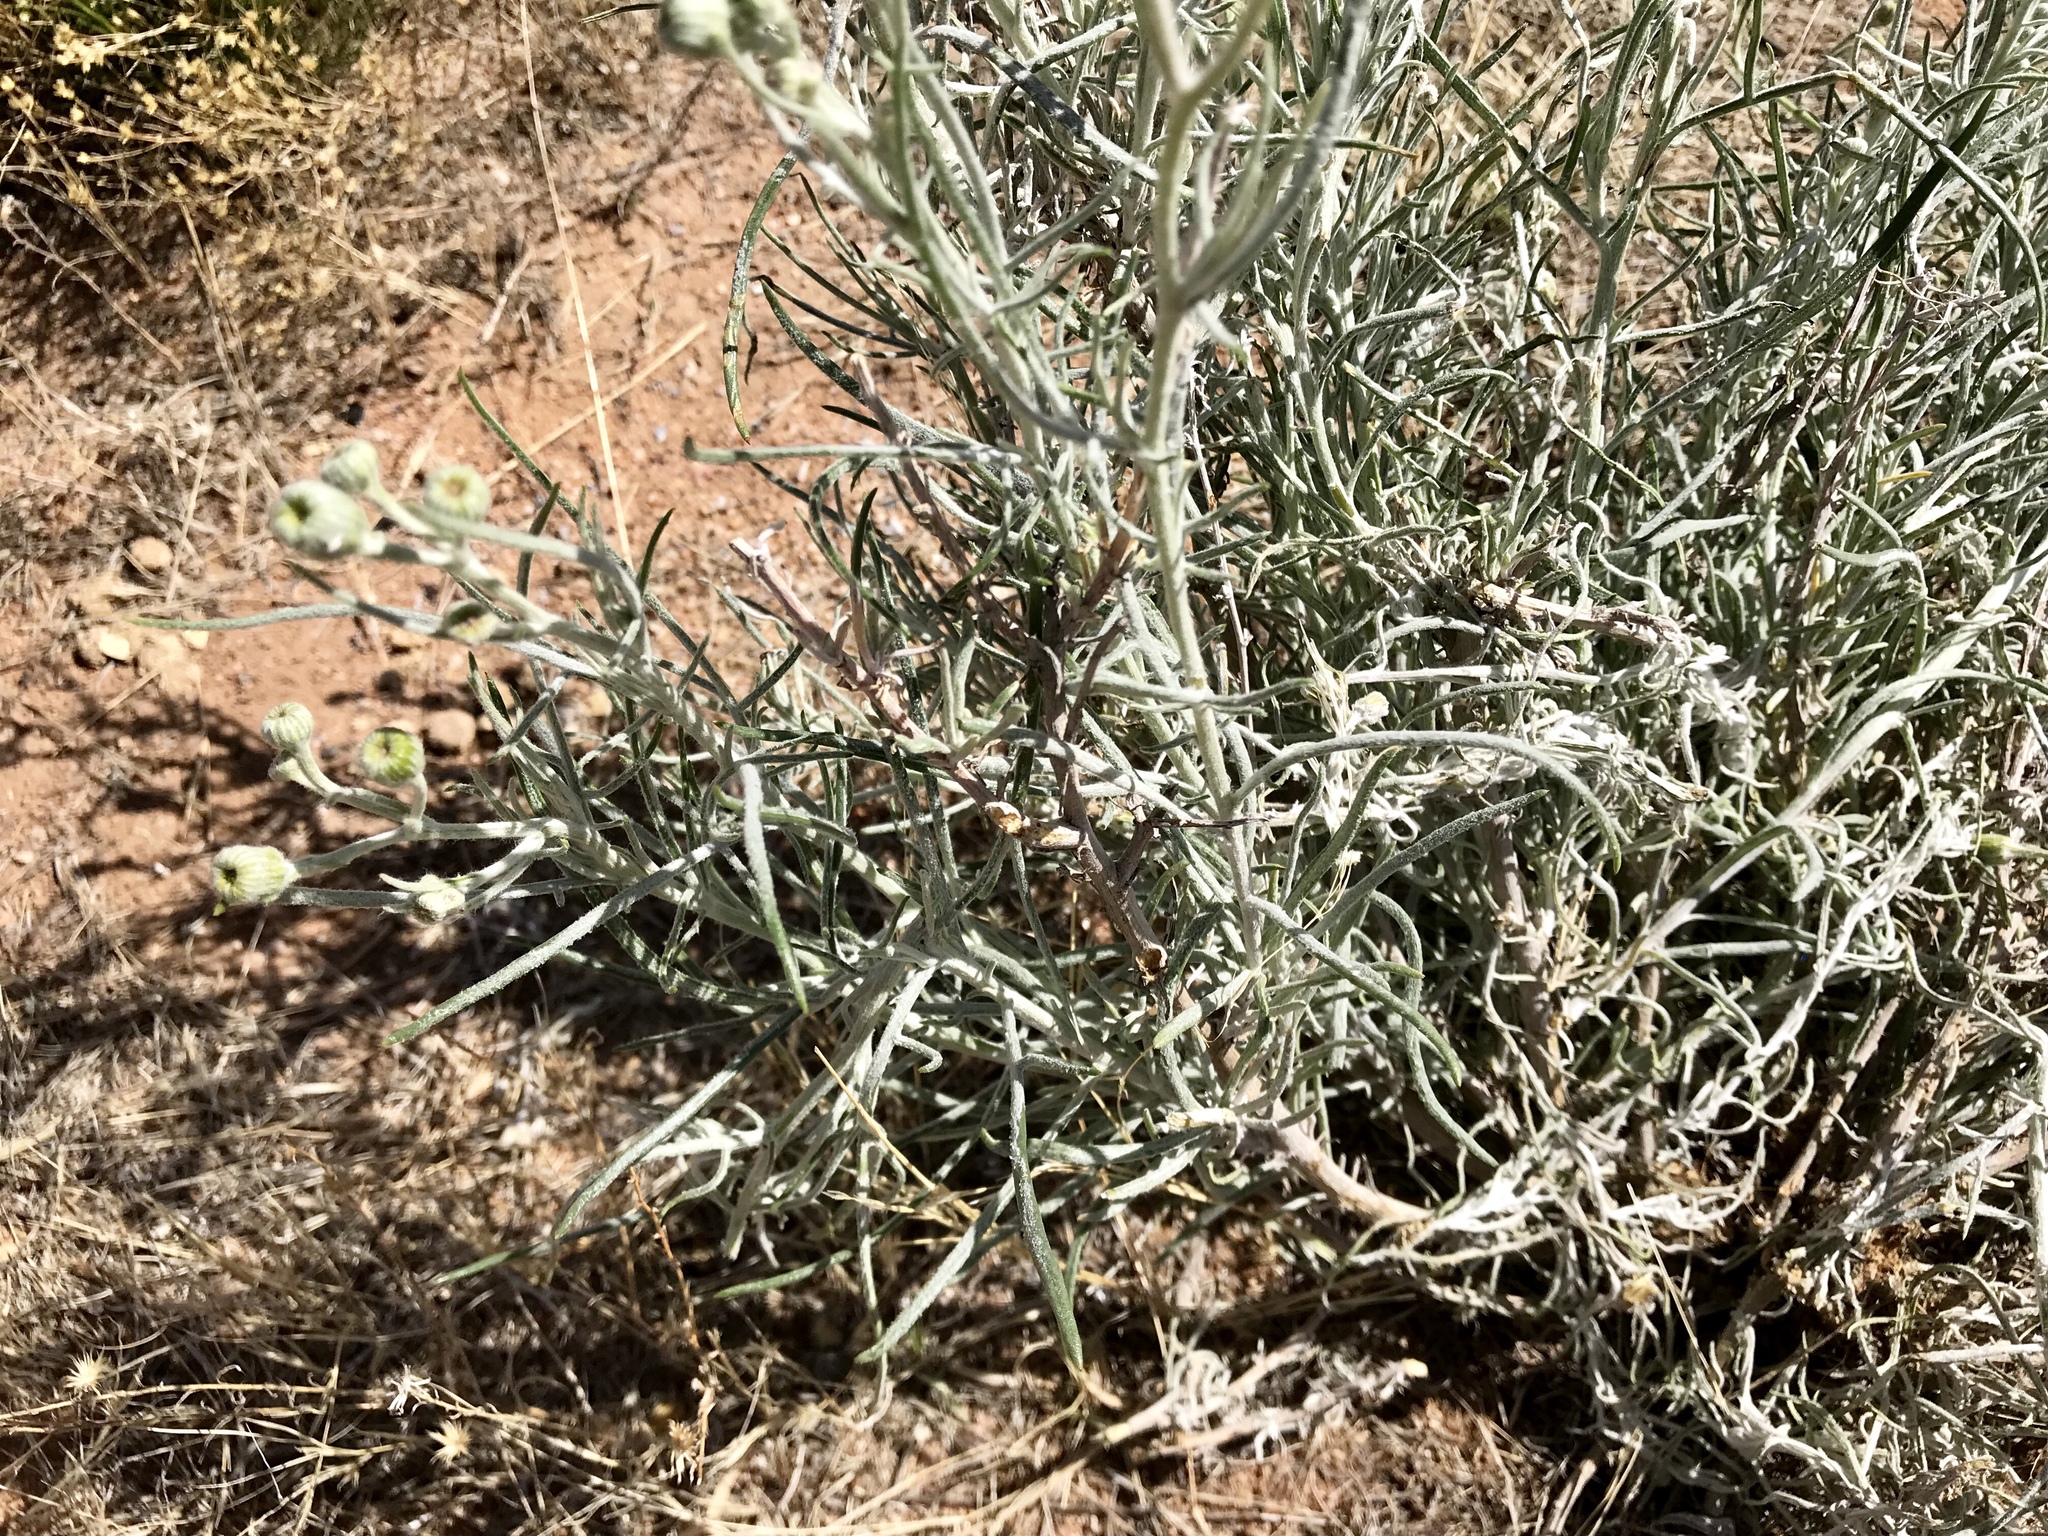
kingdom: Plantae
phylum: Tracheophyta
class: Magnoliopsida
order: Asterales
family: Asteraceae
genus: Senecio
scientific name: Senecio flaccidus
